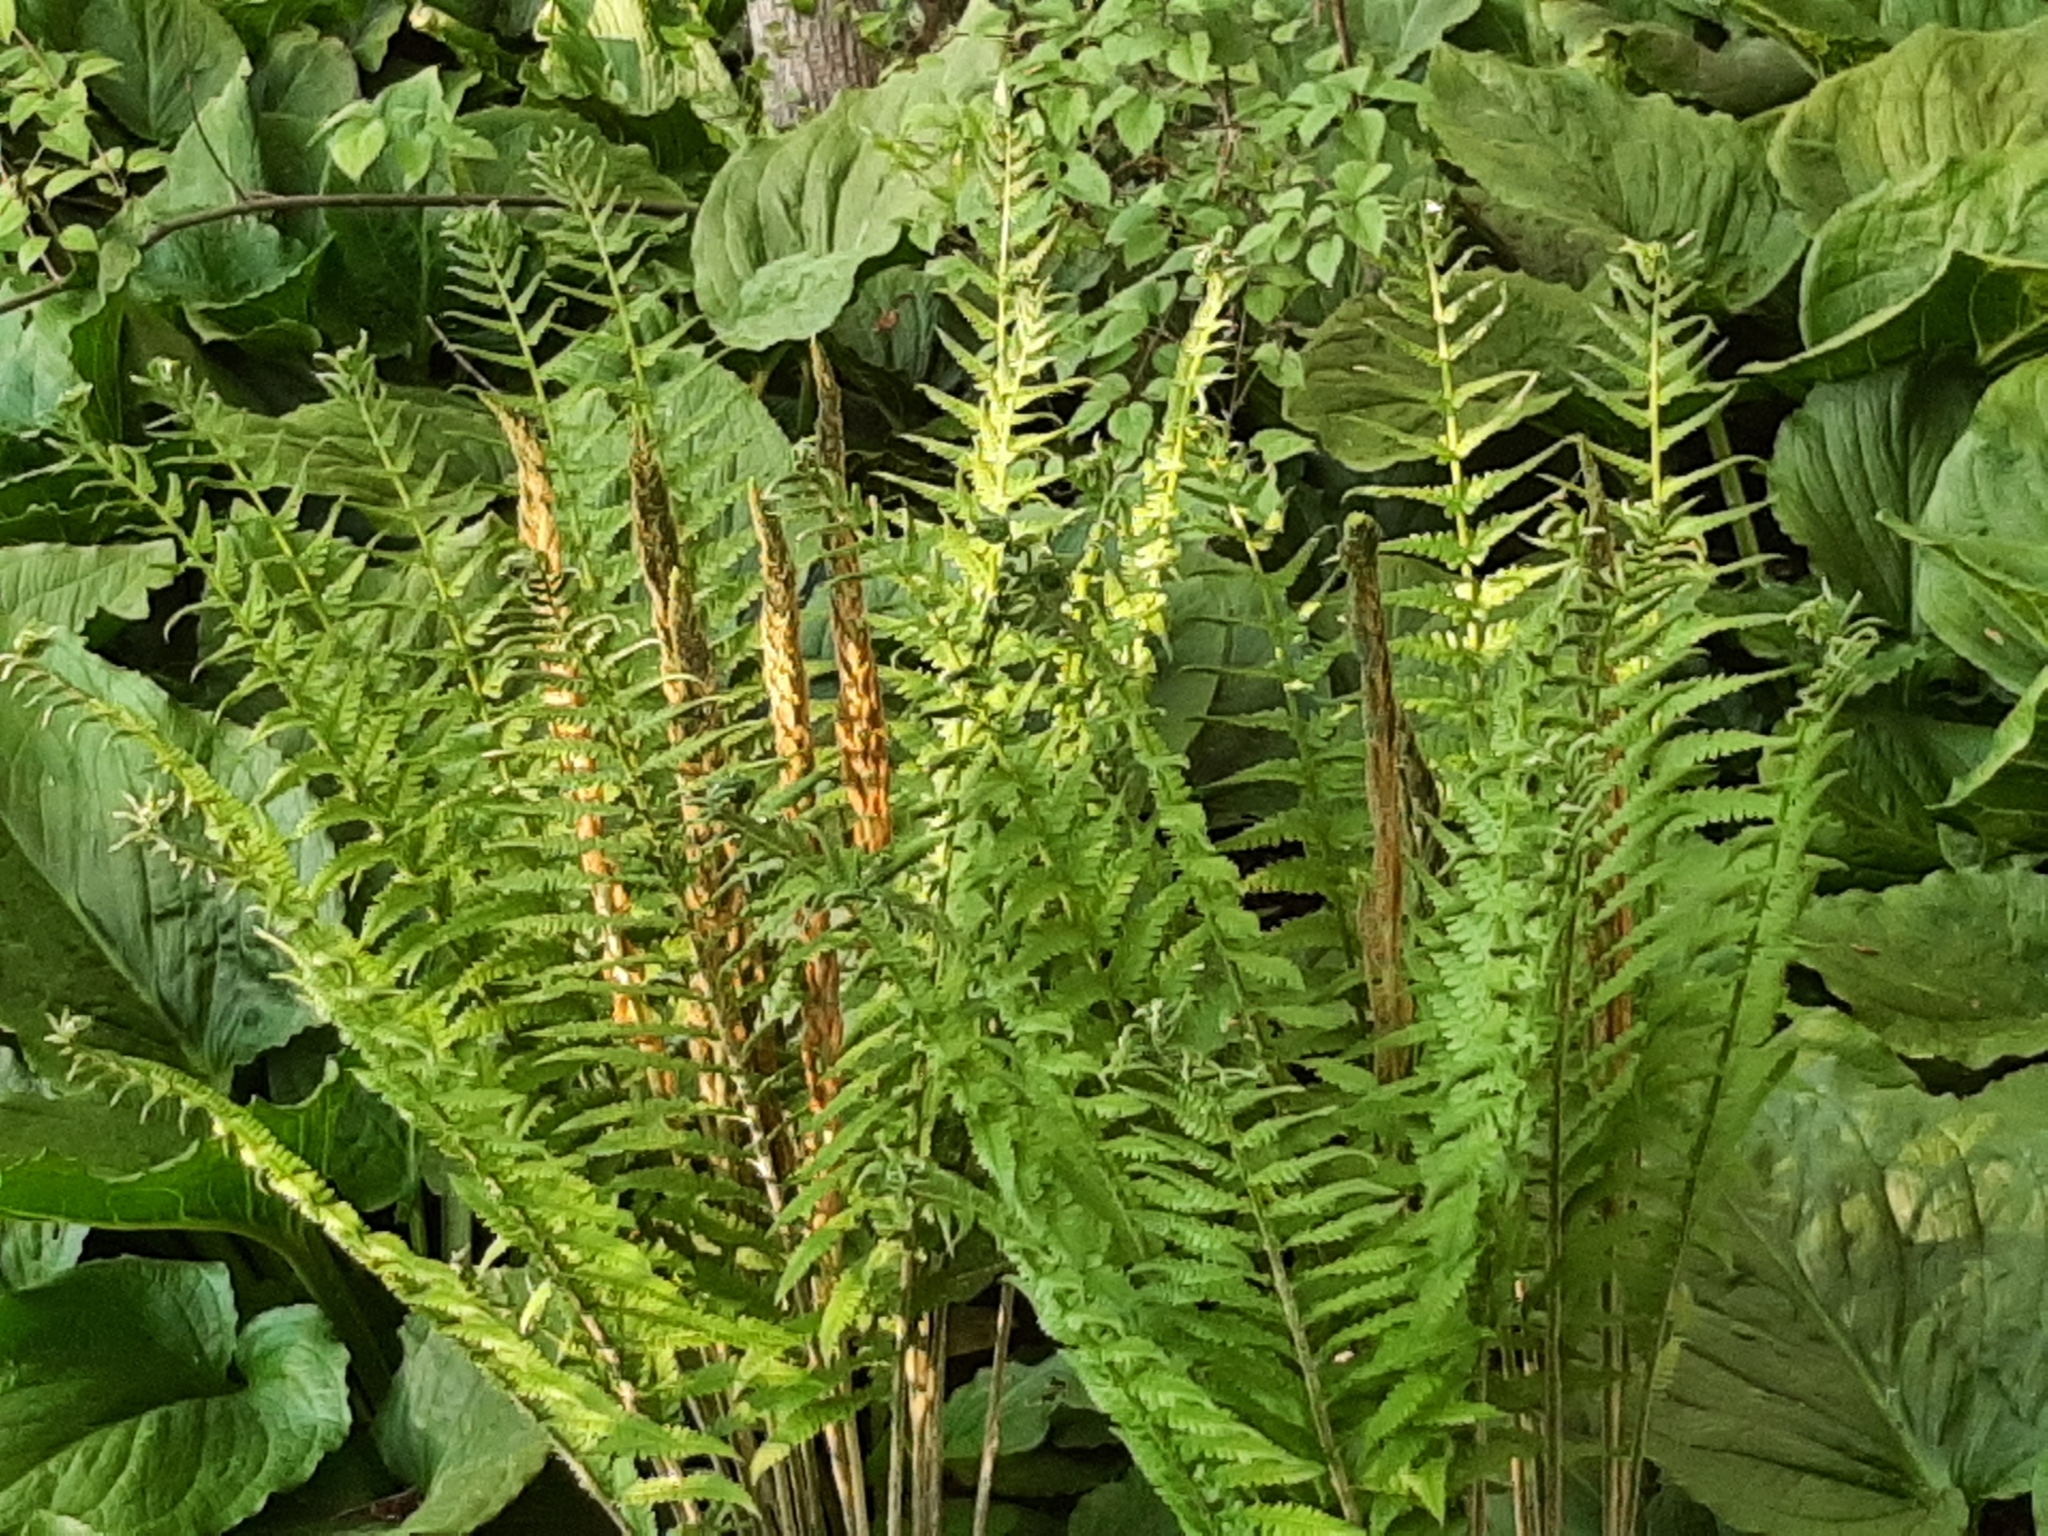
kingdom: Plantae
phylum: Tracheophyta
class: Polypodiopsida
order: Osmundales
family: Osmundaceae
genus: Osmundastrum
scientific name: Osmundastrum cinnamomeum
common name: Cinnamon fern
